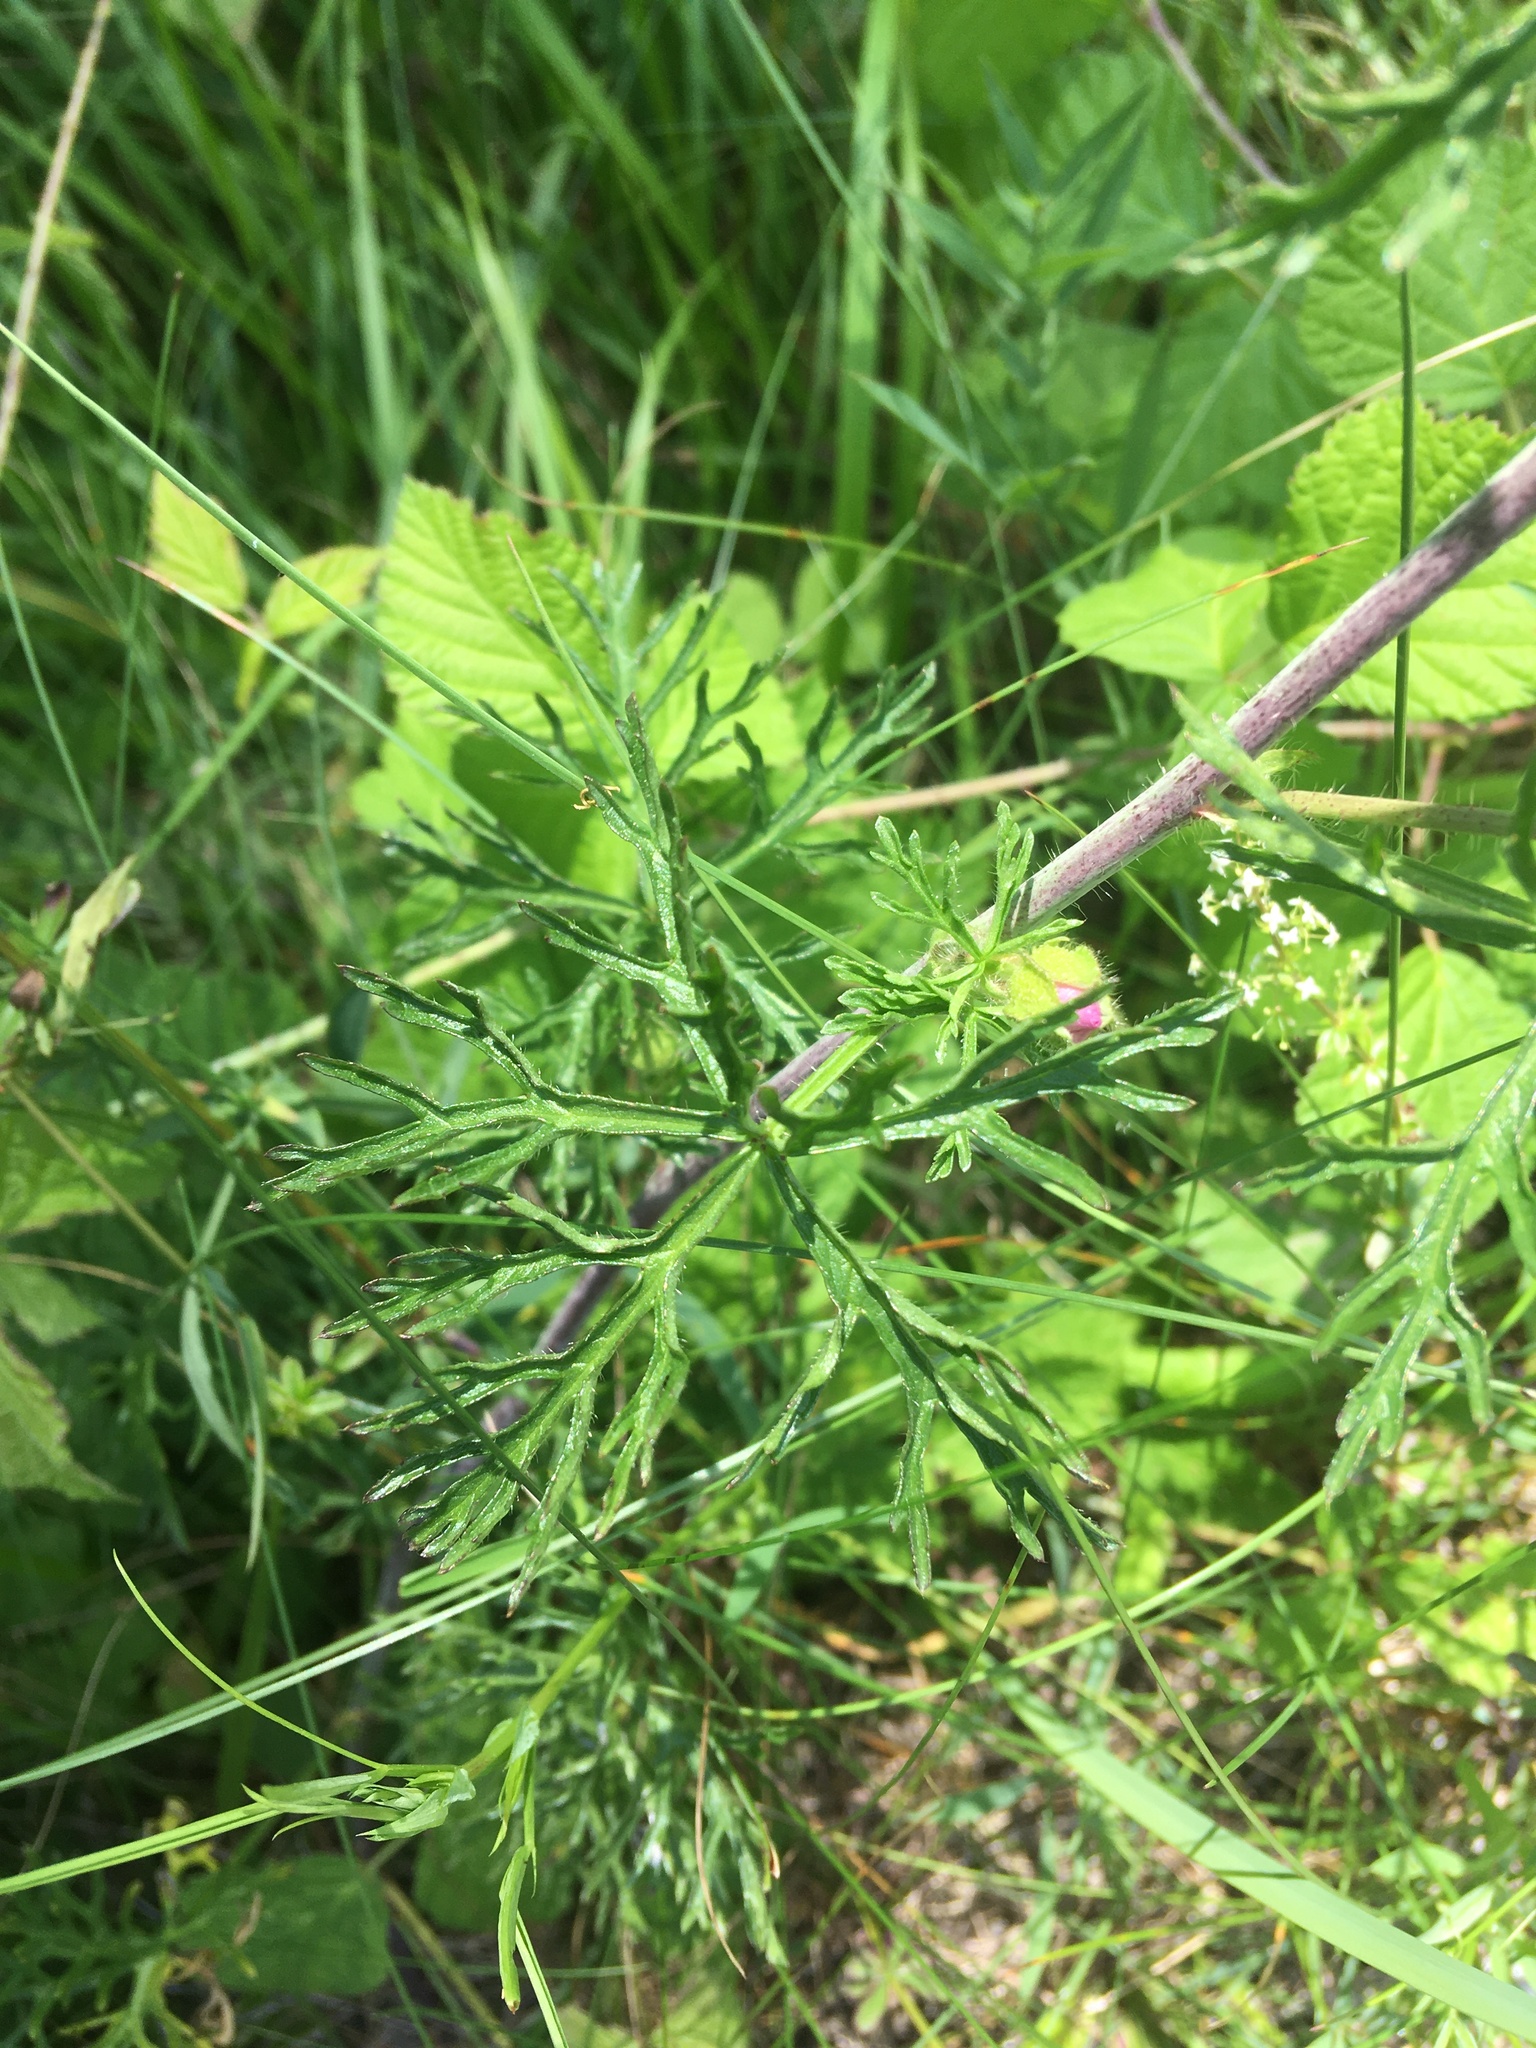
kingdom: Plantae
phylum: Tracheophyta
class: Magnoliopsida
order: Malvales
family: Malvaceae
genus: Malva
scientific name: Malva moschata
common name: Musk mallow
